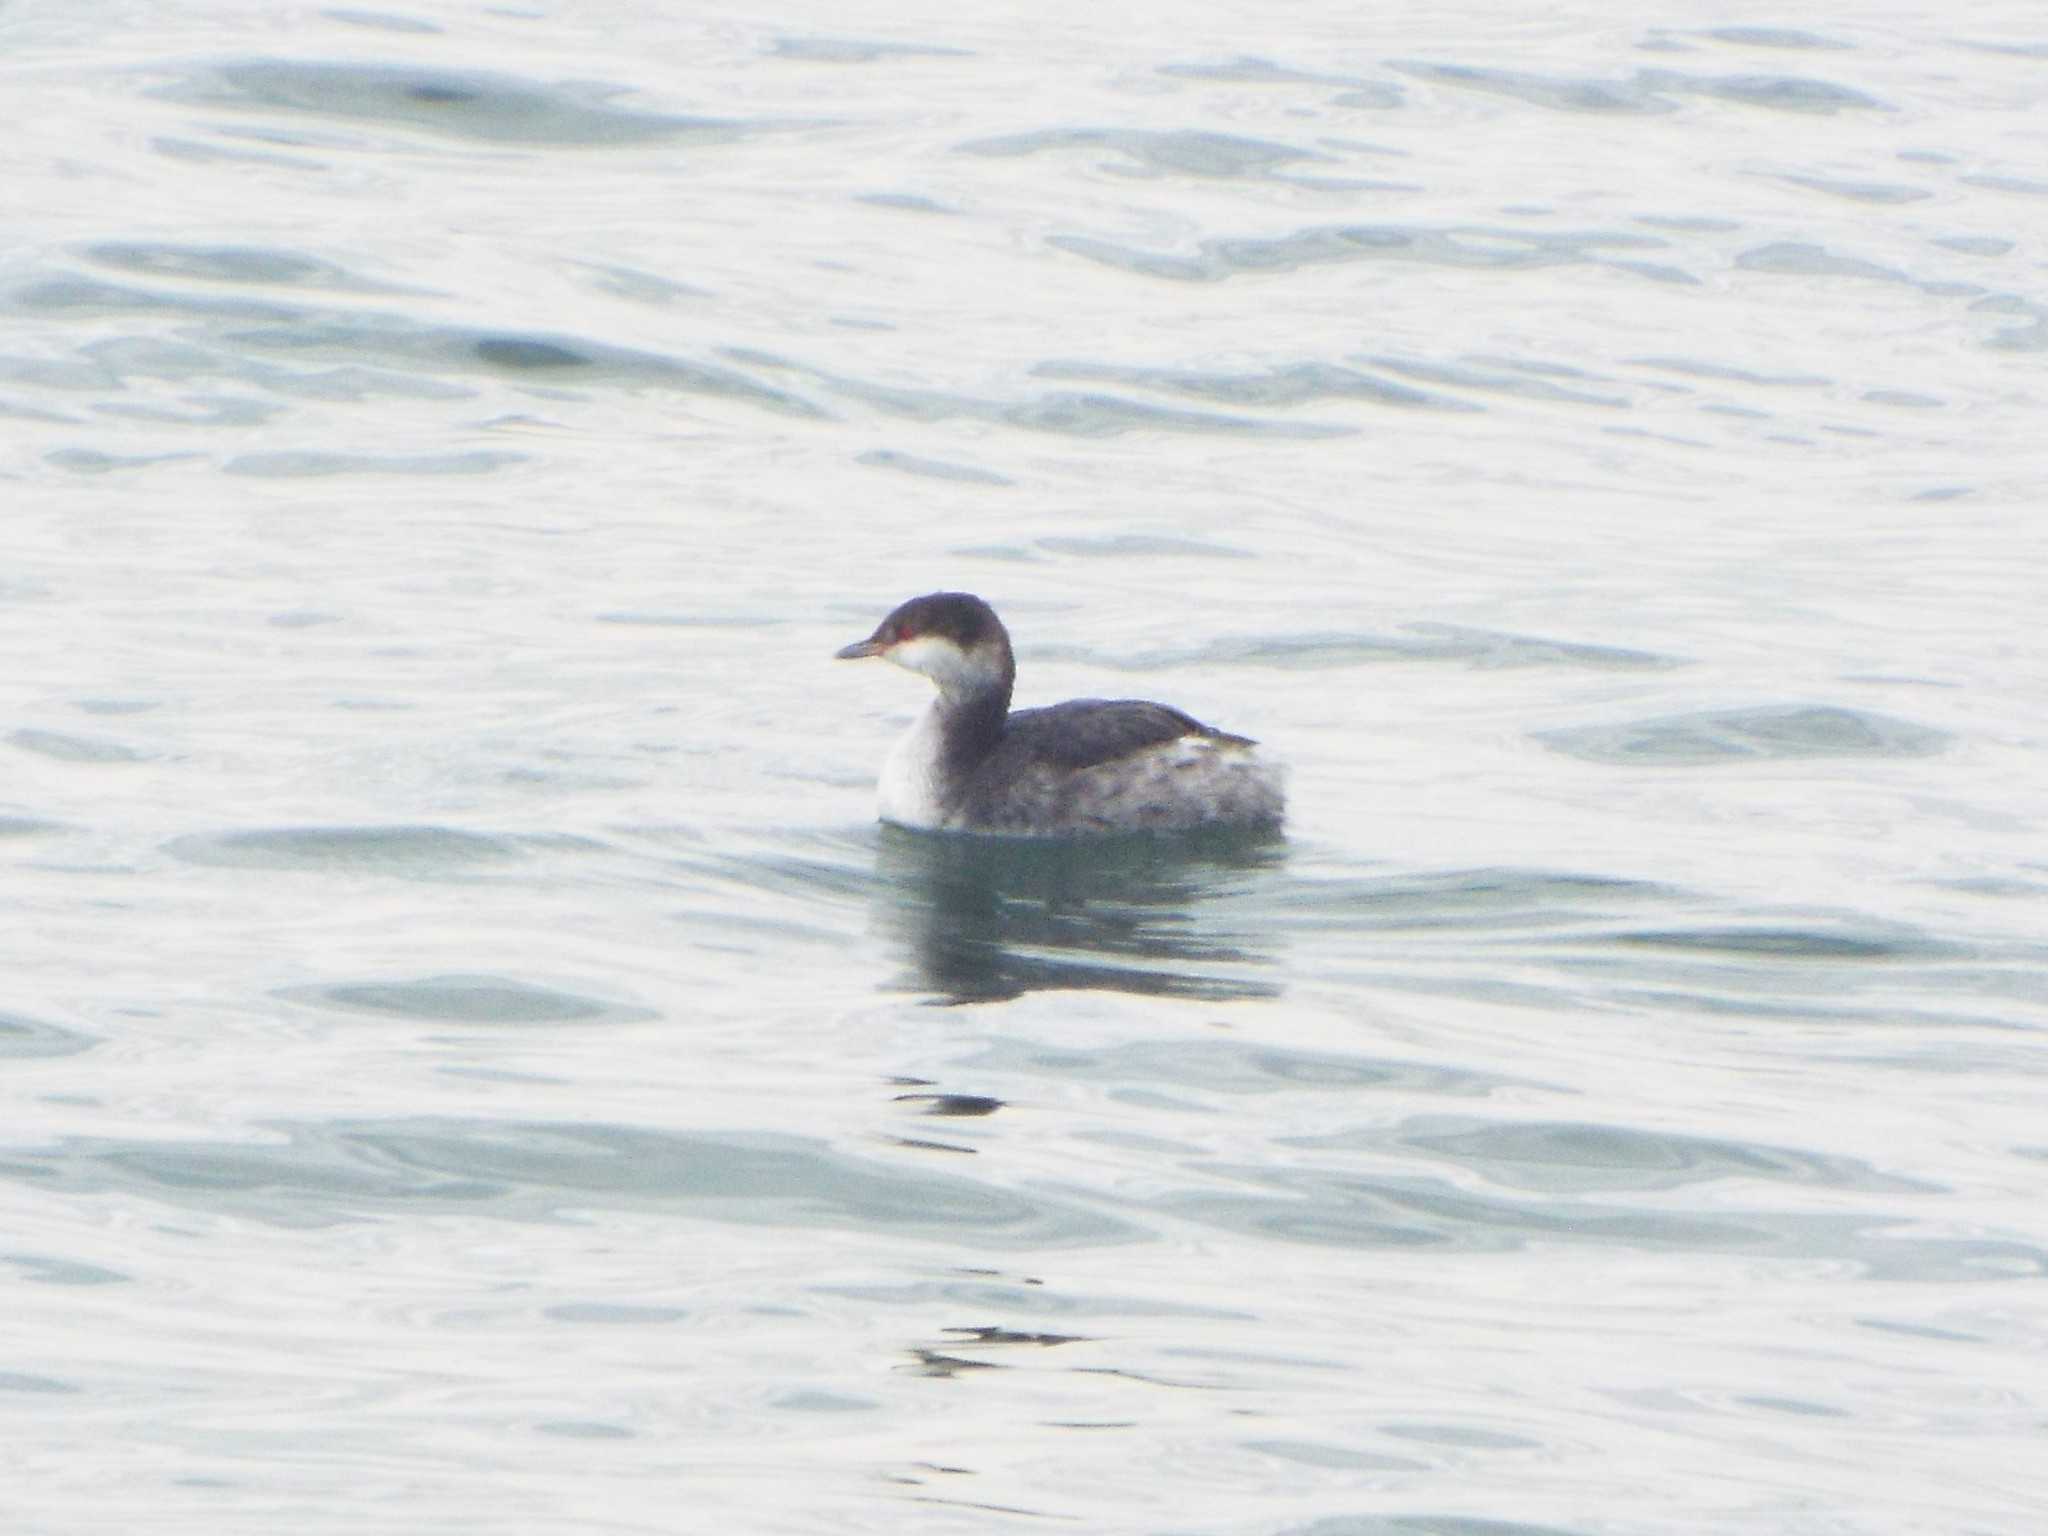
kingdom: Animalia
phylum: Chordata
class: Aves
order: Podicipediformes
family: Podicipedidae
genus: Podiceps
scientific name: Podiceps auritus
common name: Horned grebe
